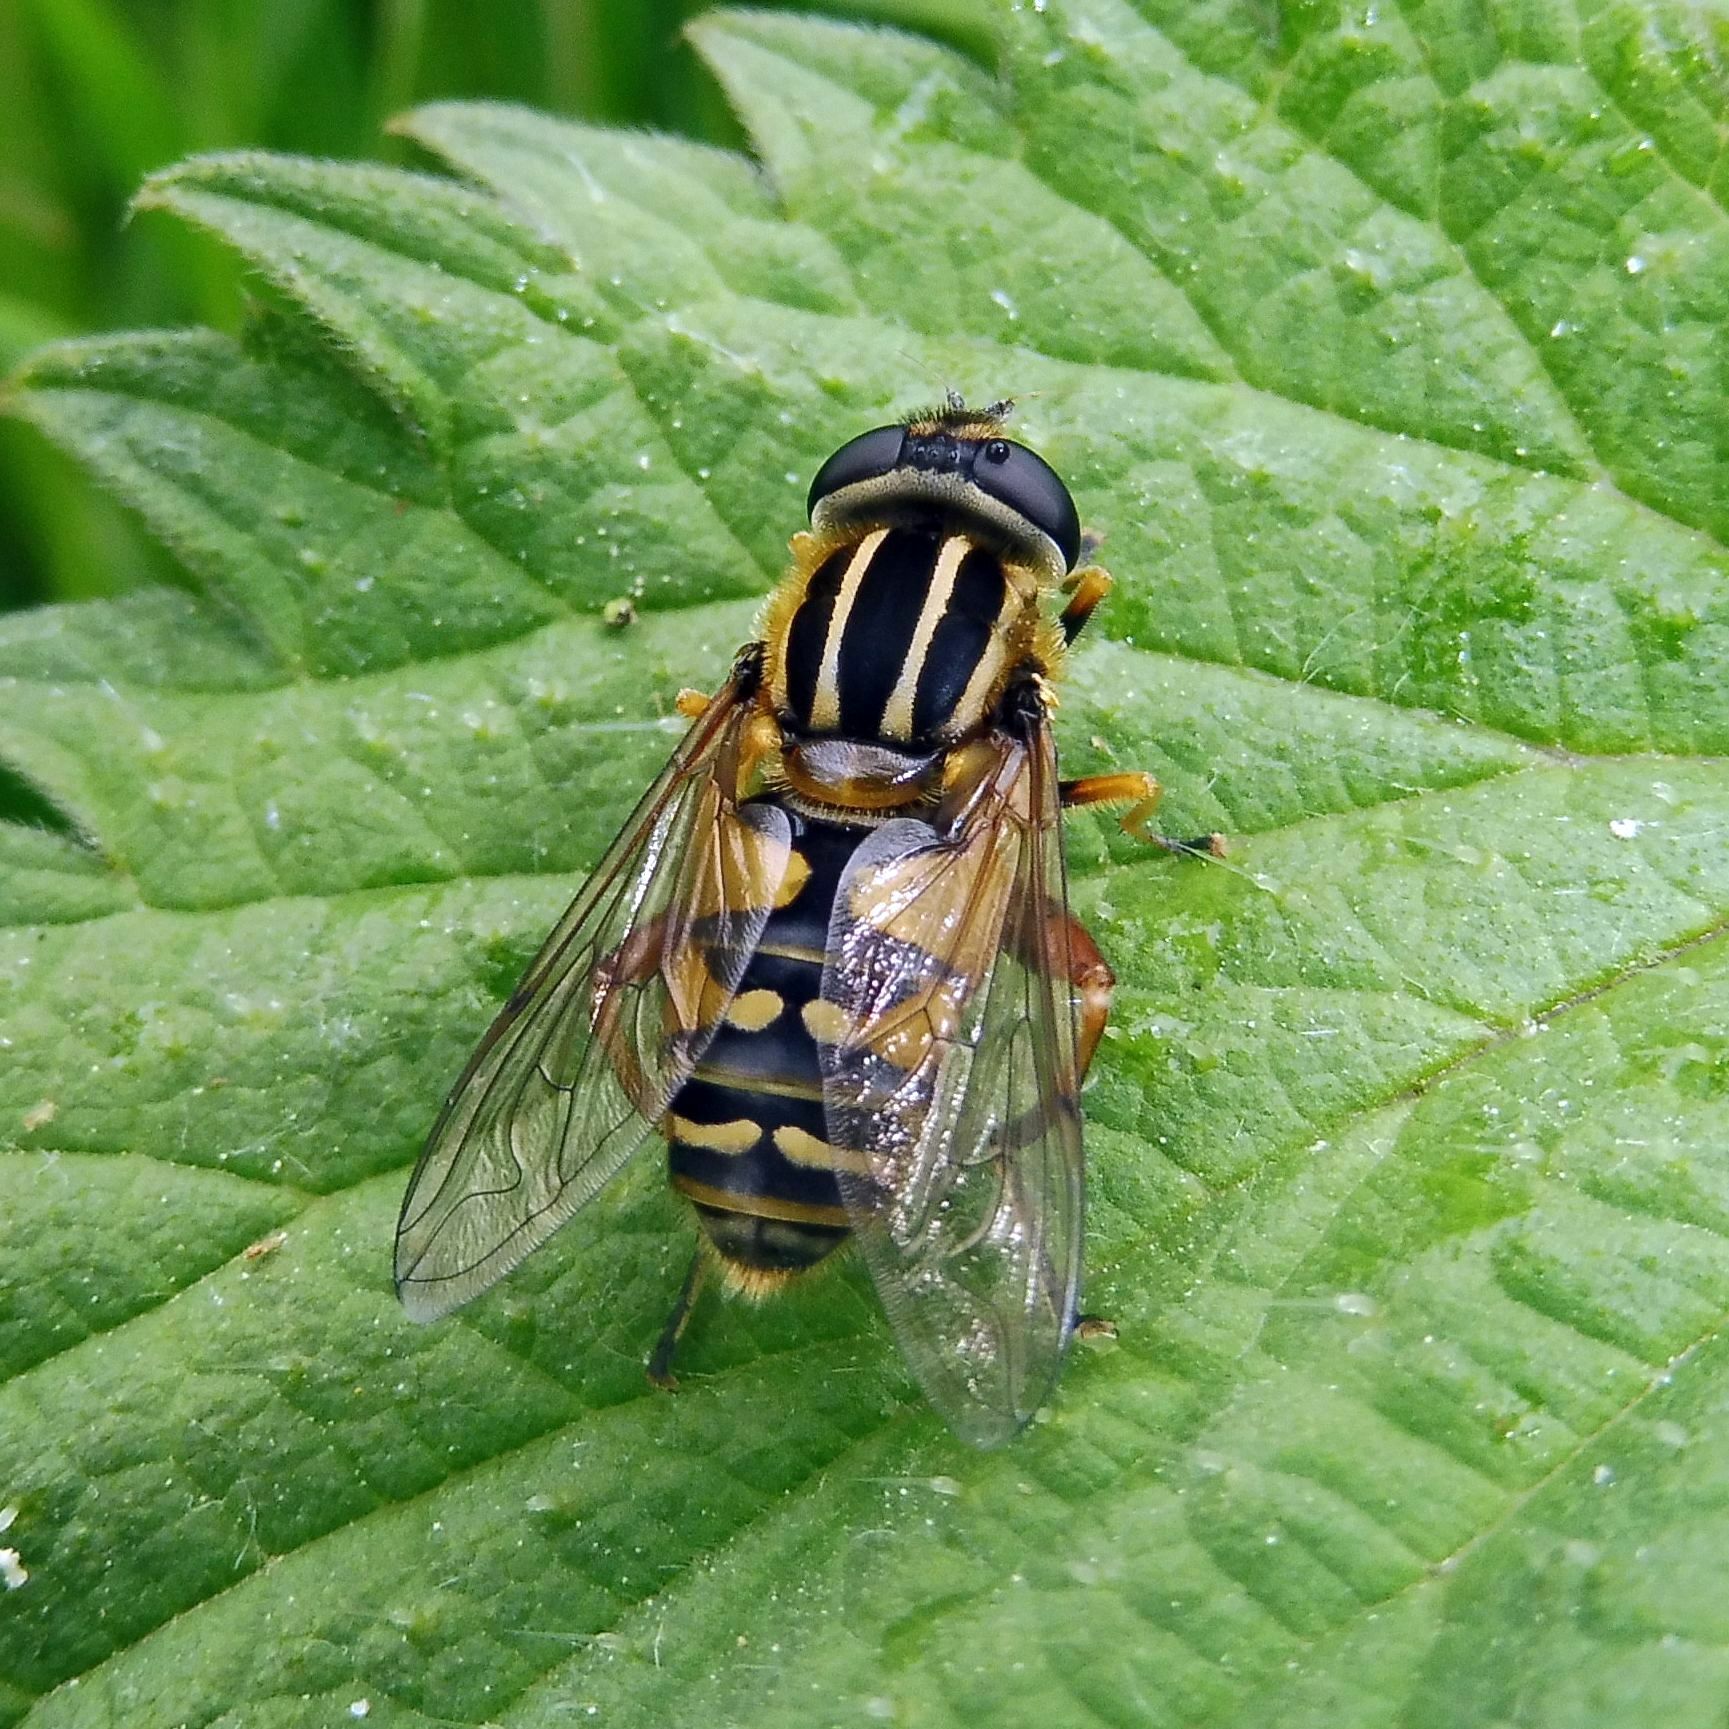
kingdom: Animalia
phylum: Arthropoda
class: Insecta
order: Diptera
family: Syrphidae
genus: Helophilus
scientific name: Helophilus pendulus
